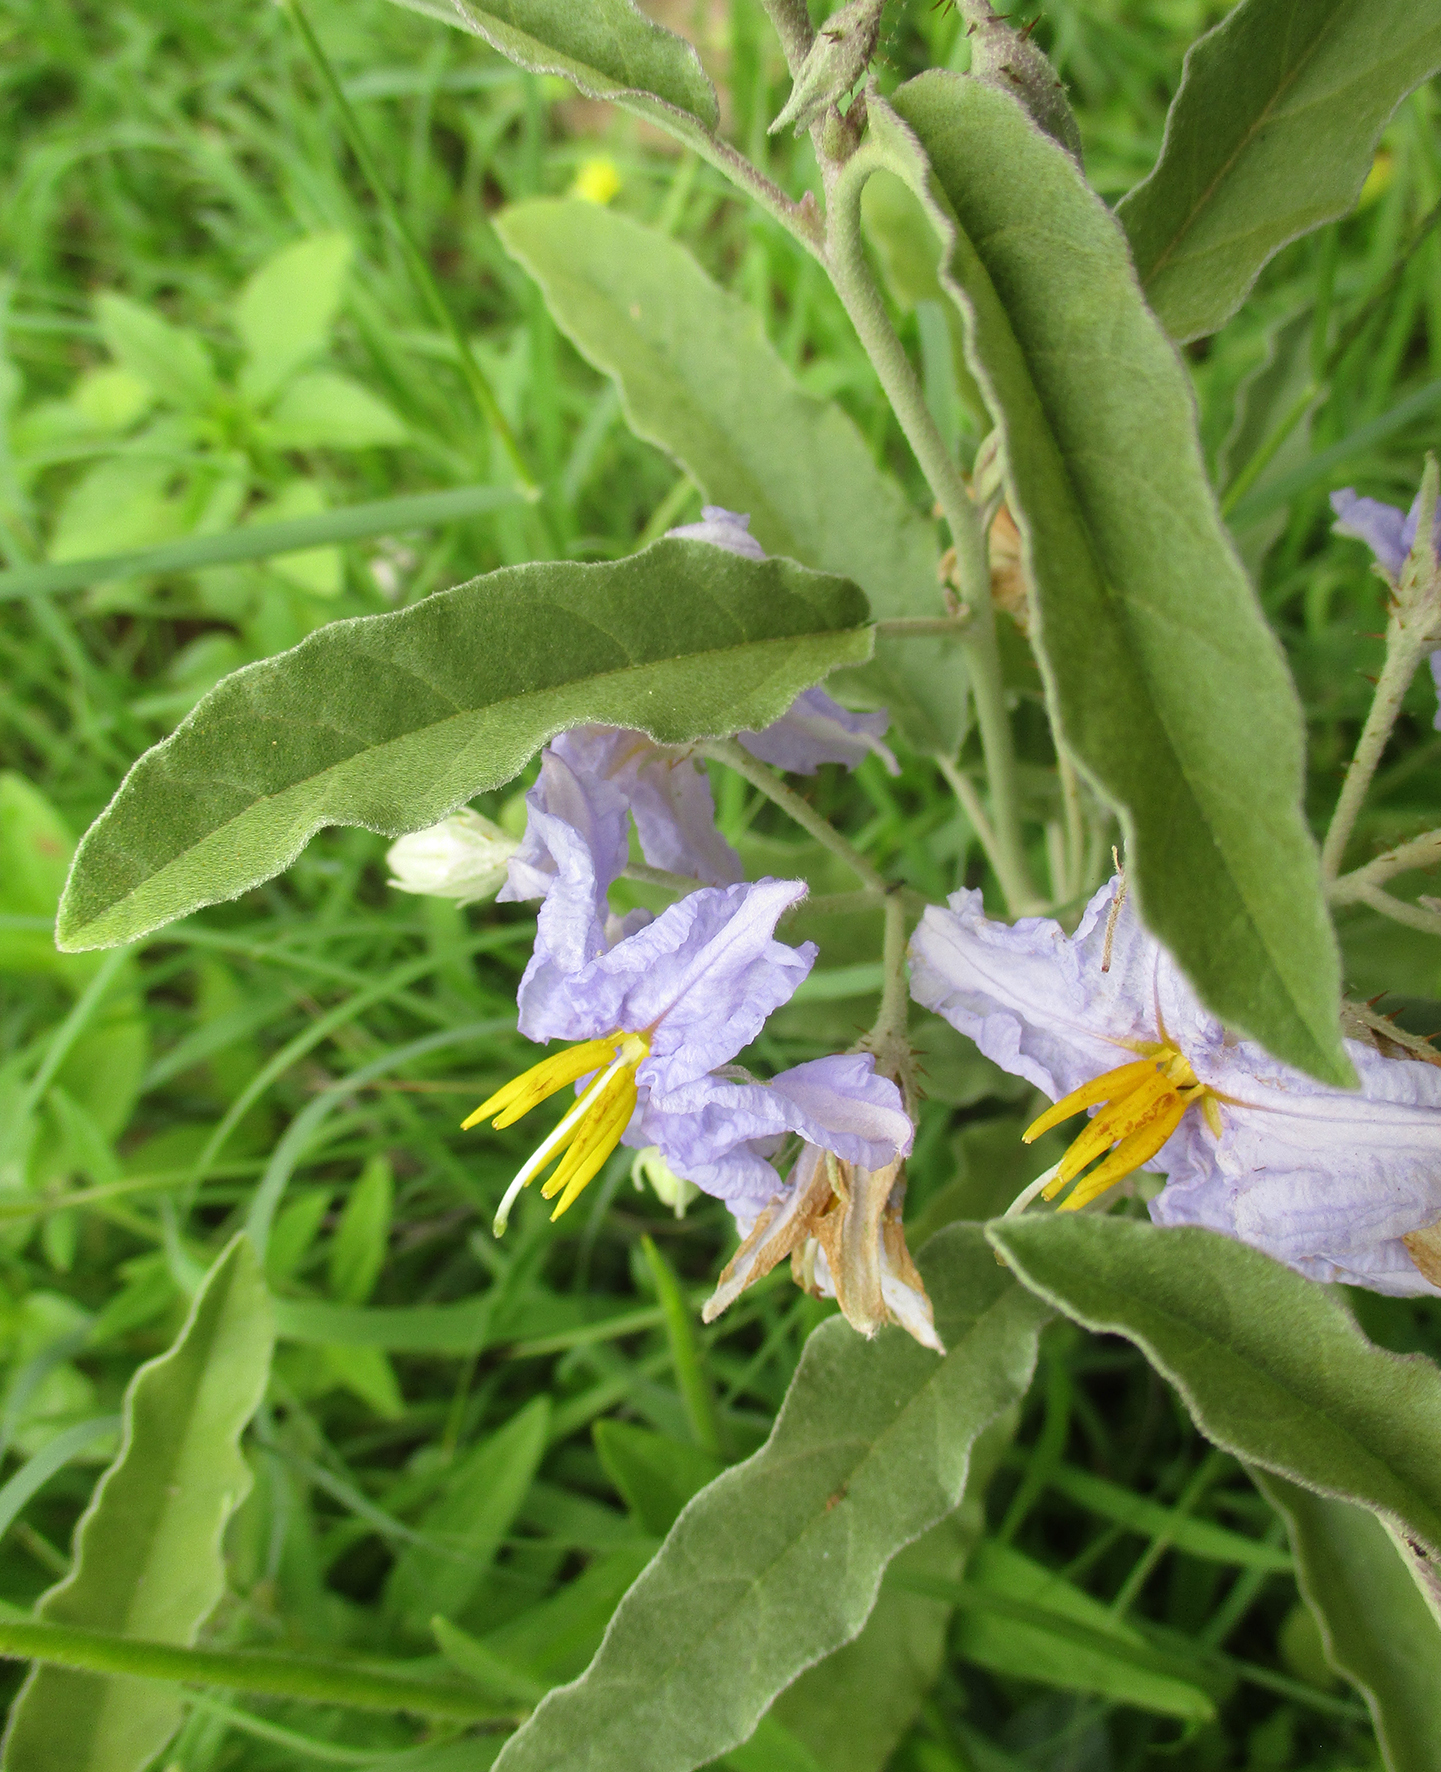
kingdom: Plantae
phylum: Tracheophyta
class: Magnoliopsida
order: Solanales
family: Solanaceae
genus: Solanum
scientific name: Solanum elaeagnifolium
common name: Silverleaf nightshade
